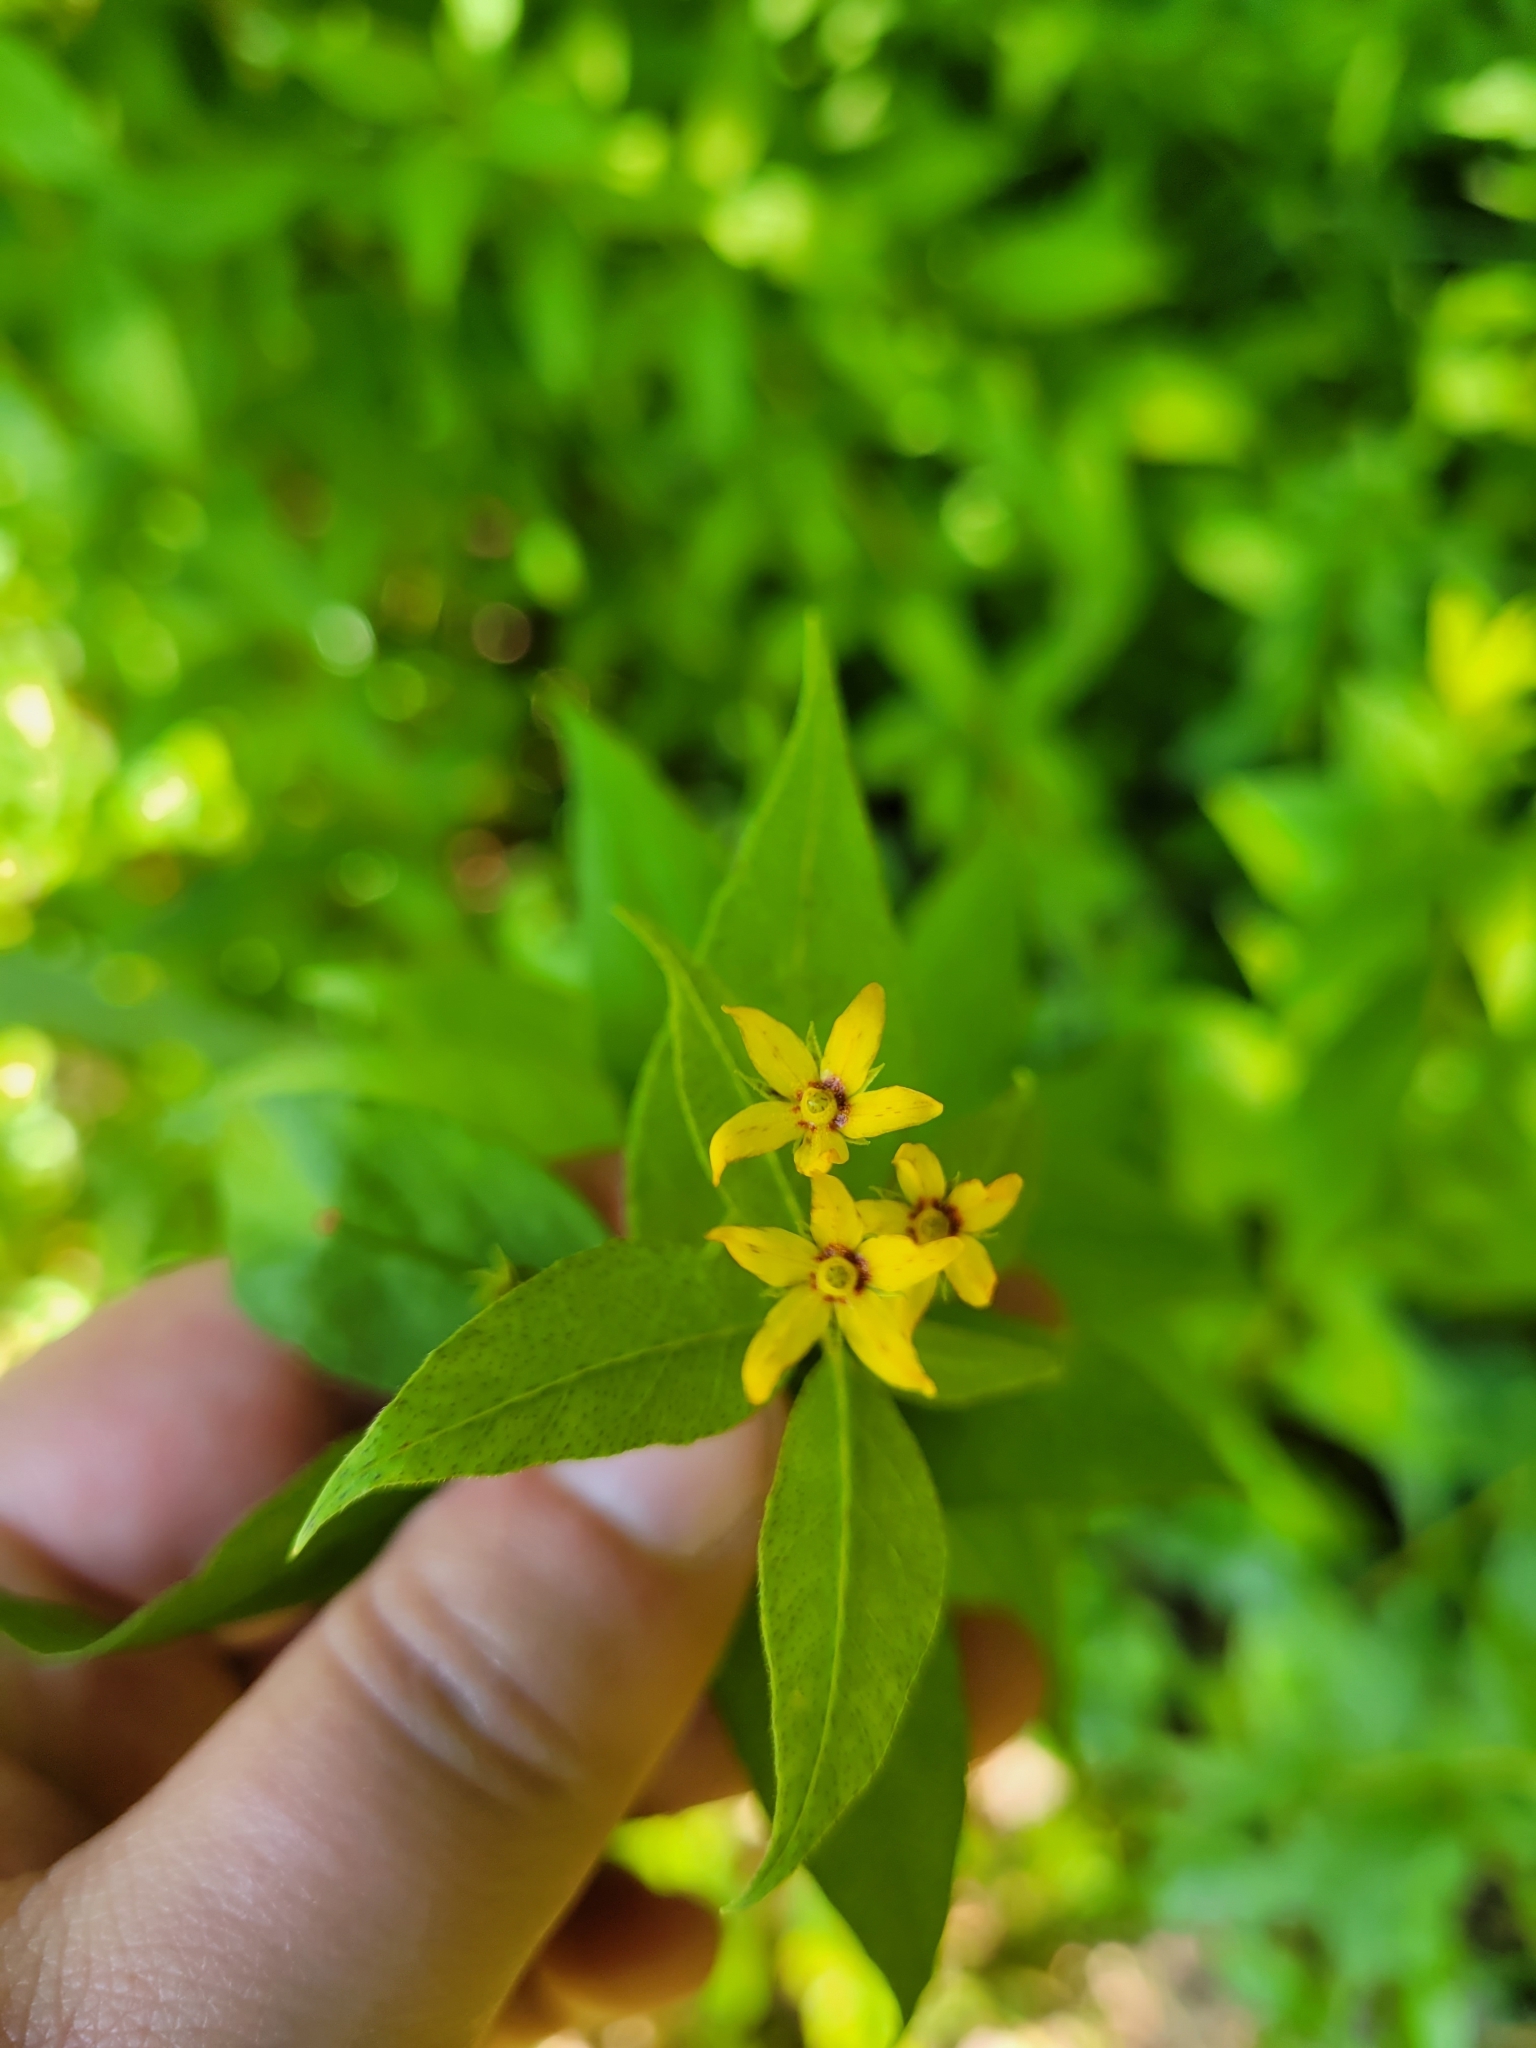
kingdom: Plantae
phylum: Tracheophyta
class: Magnoliopsida
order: Ericales
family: Primulaceae
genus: Lysimachia
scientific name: Lysimachia quadrifolia
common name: Whorled loosestrife
